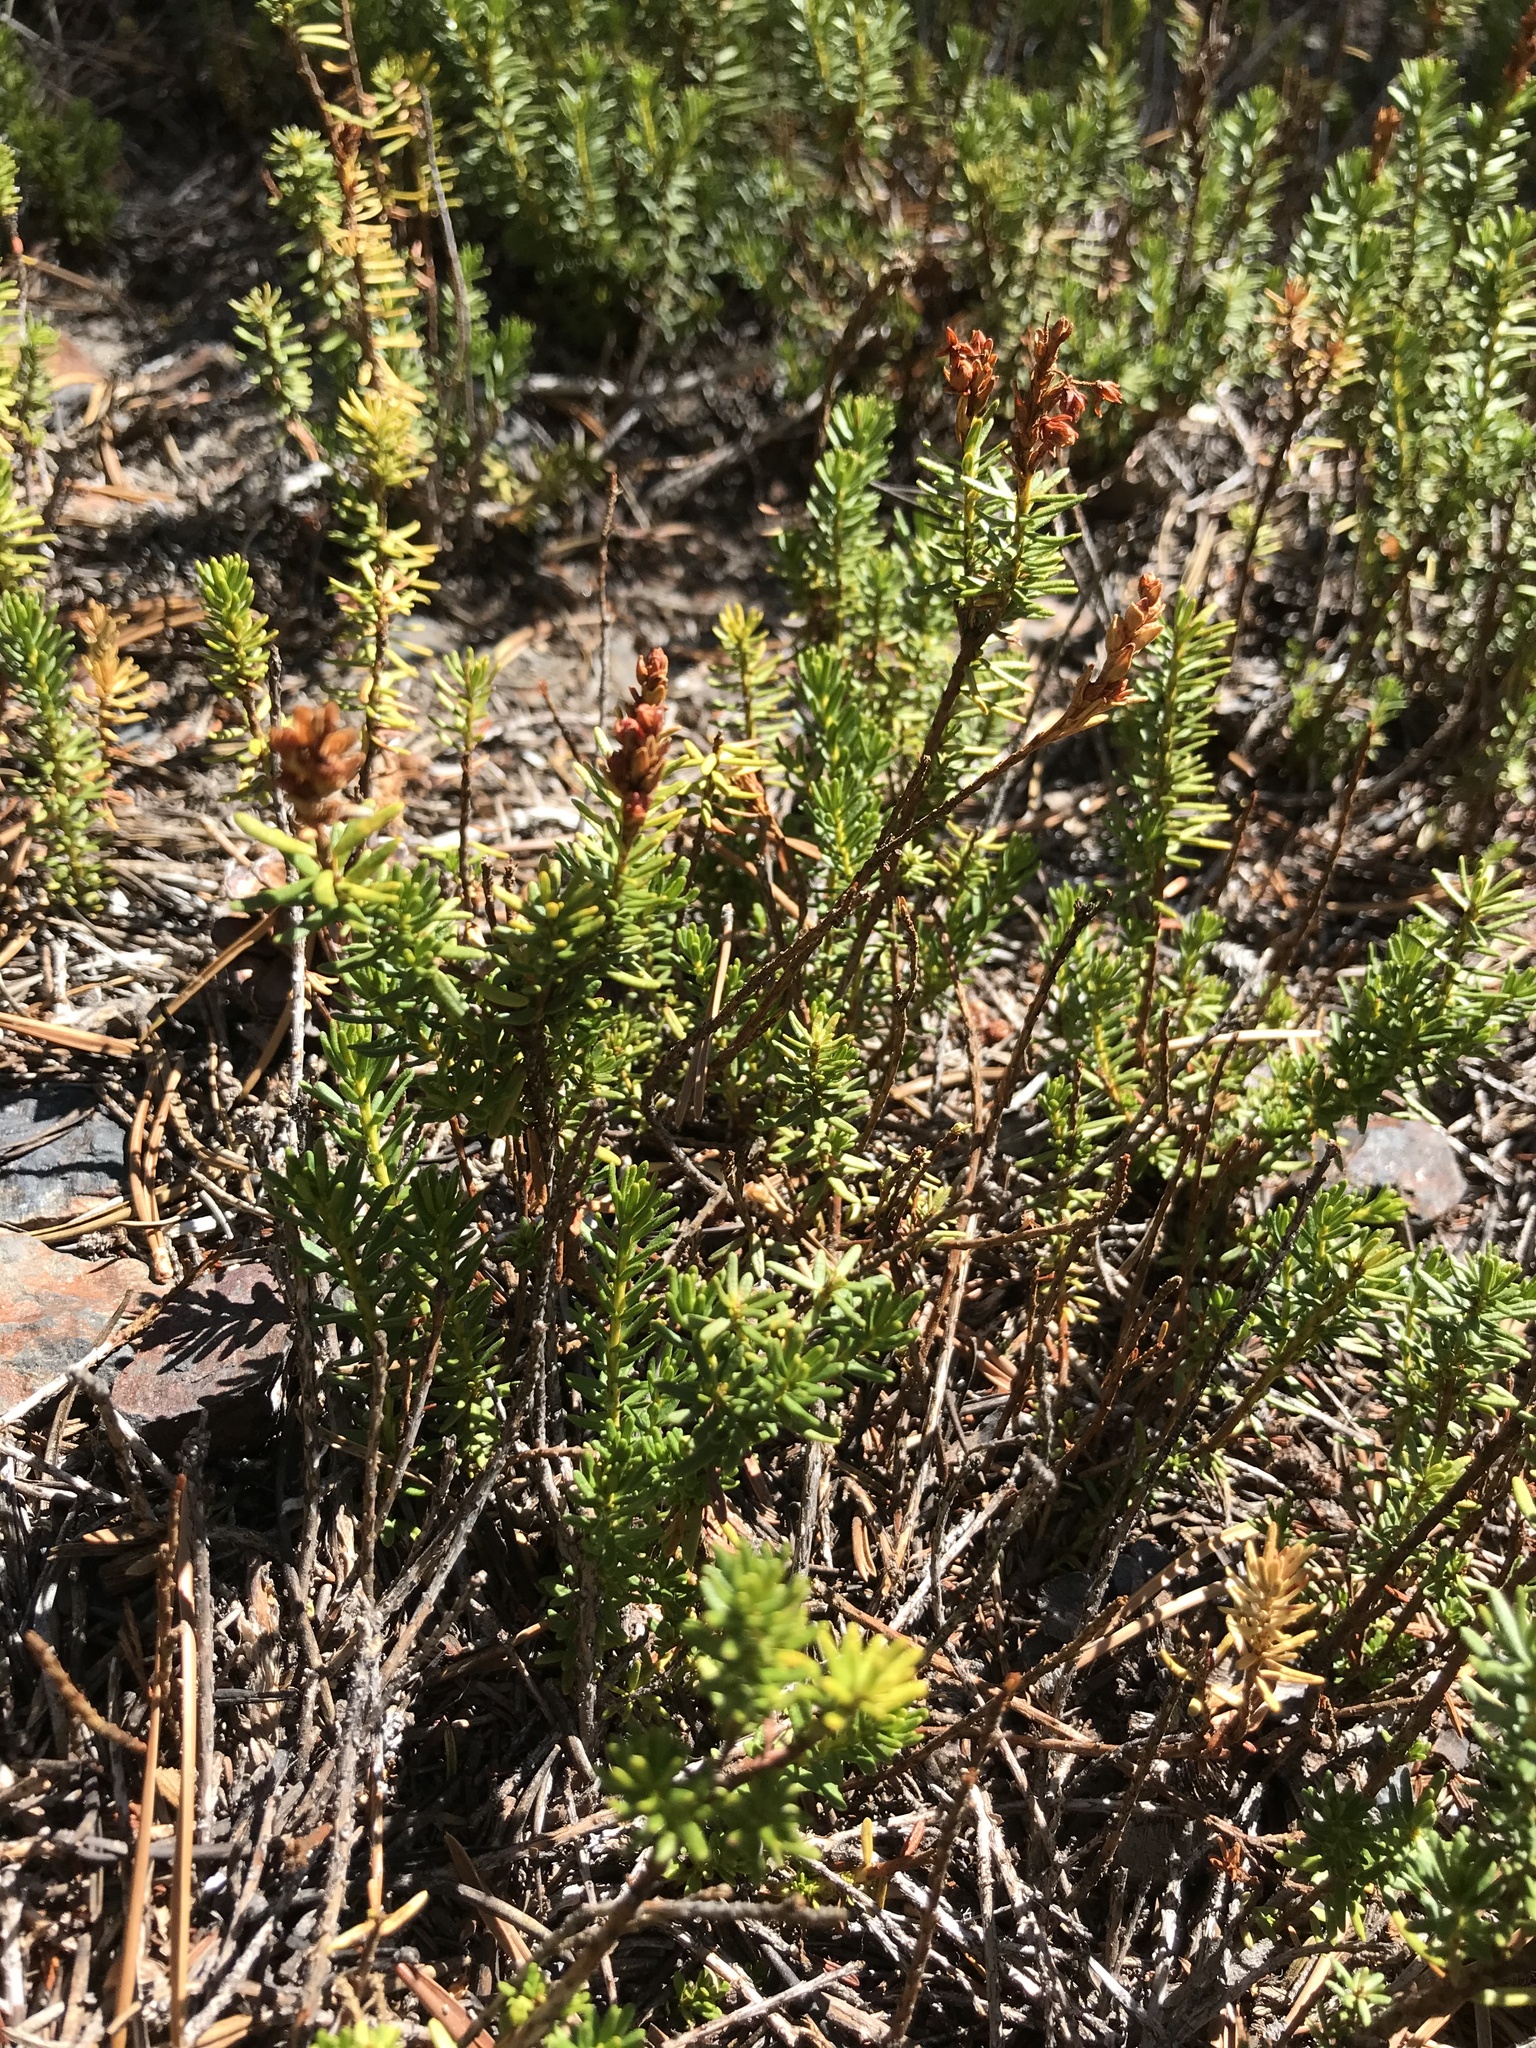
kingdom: Plantae
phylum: Tracheophyta
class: Magnoliopsida
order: Ericales
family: Ericaceae
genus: Phyllodoce
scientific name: Phyllodoce breweri
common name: Brewer's mountain-heather
